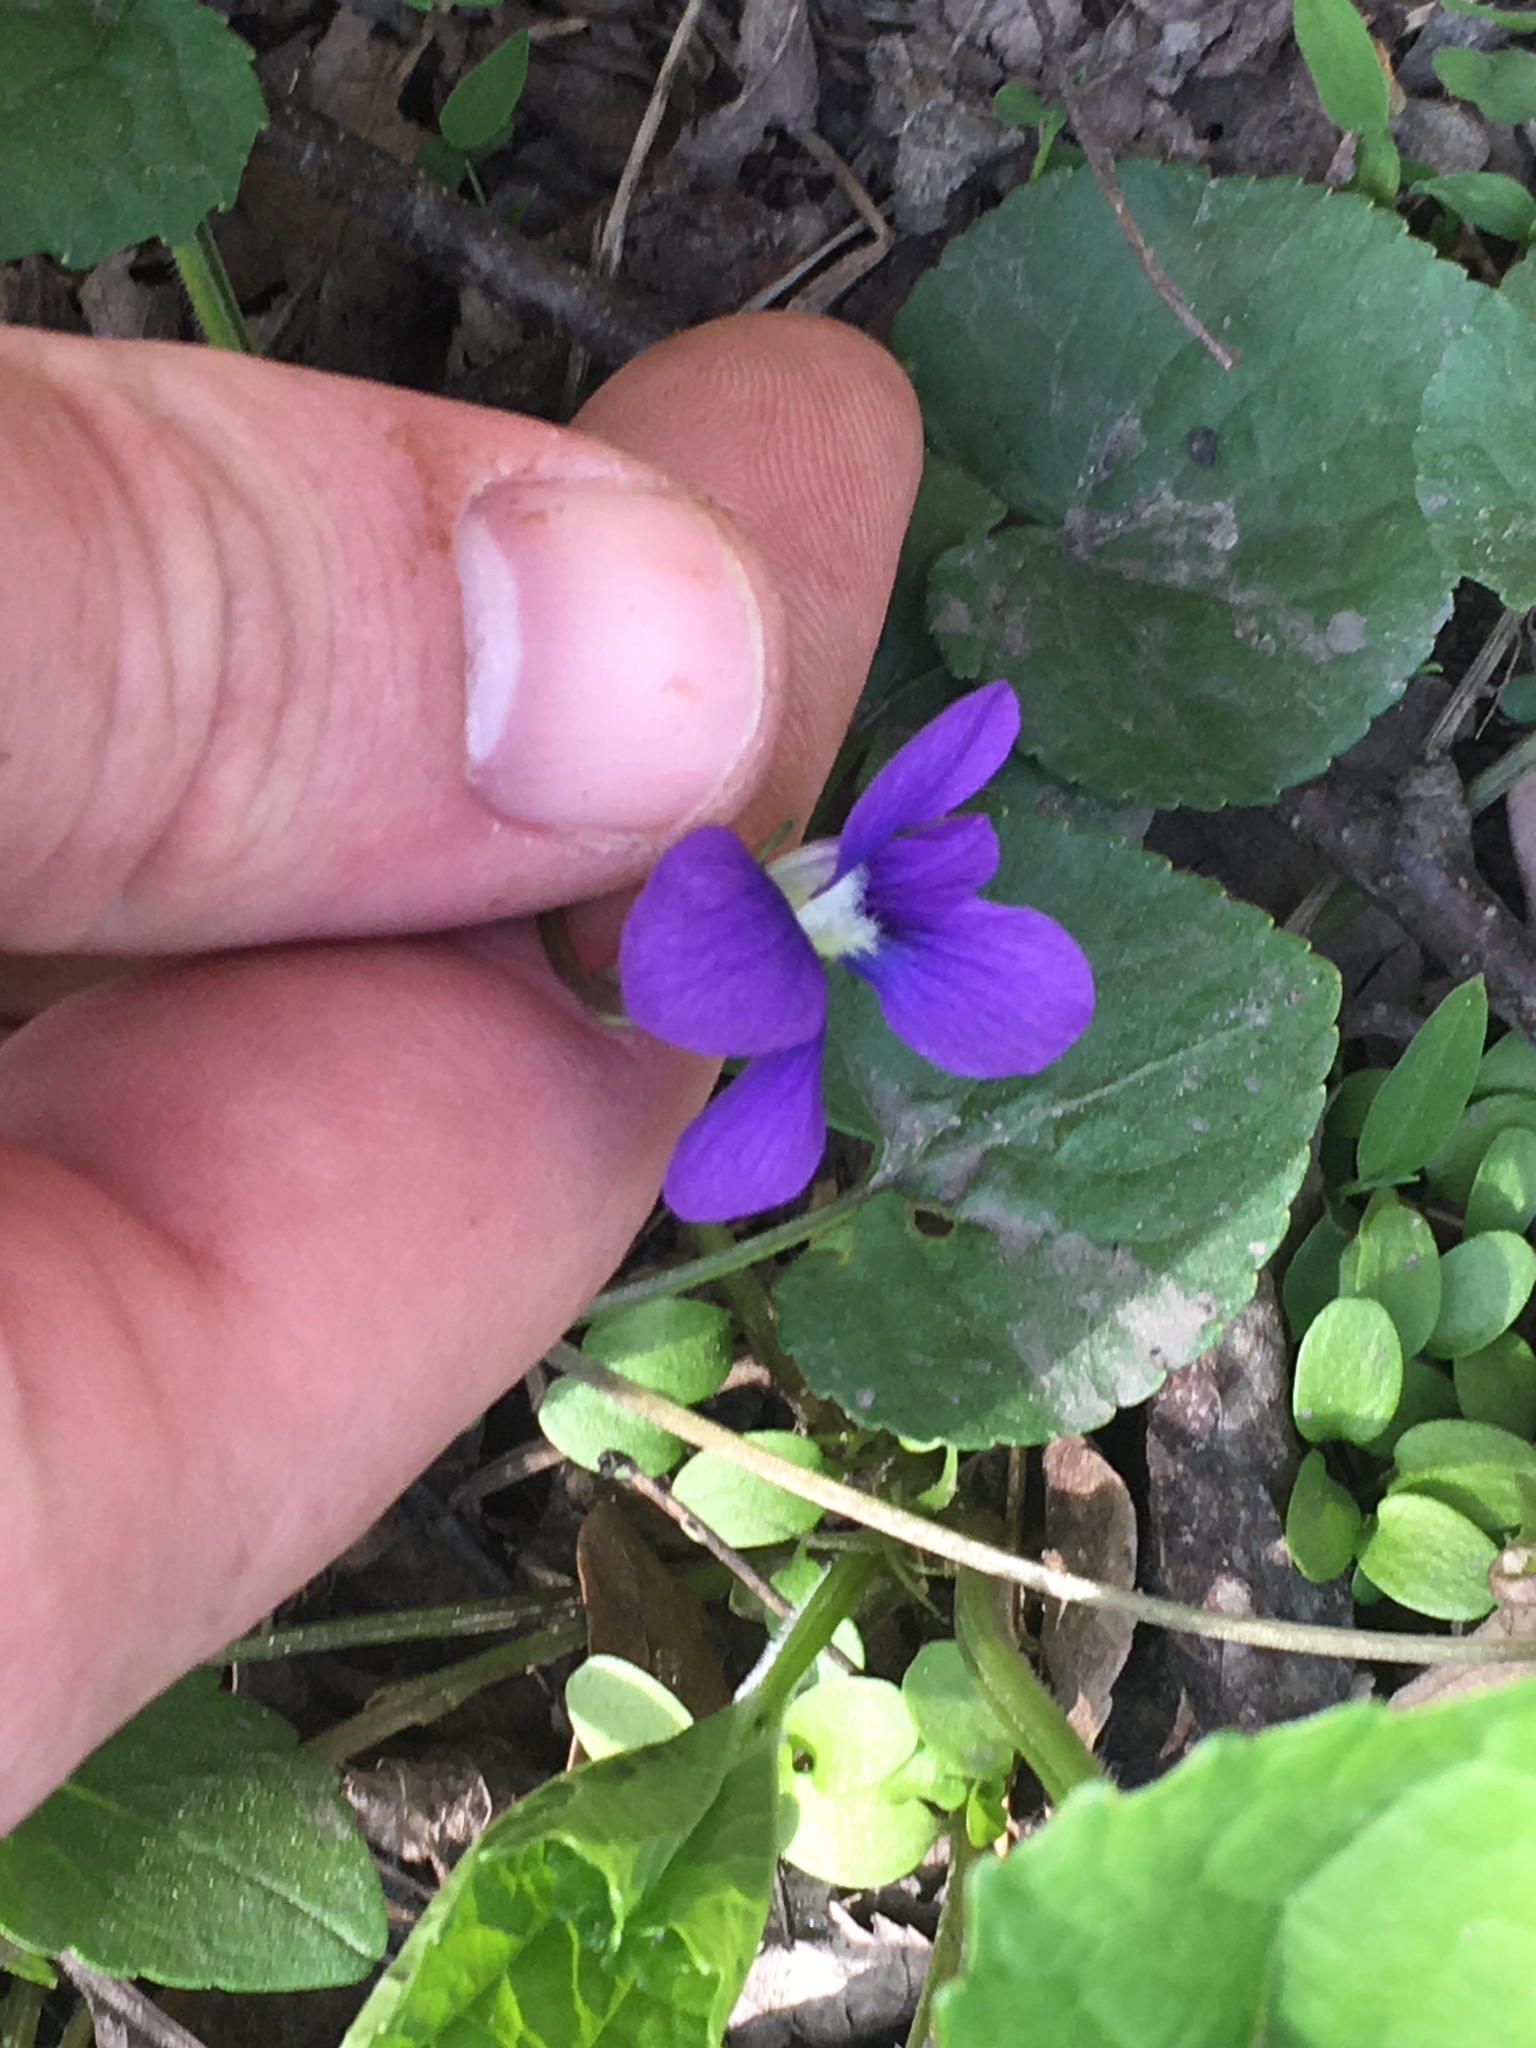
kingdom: Plantae
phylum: Tracheophyta
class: Magnoliopsida
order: Malpighiales
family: Violaceae
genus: Viola
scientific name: Viola sororia
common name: Dooryard violet
